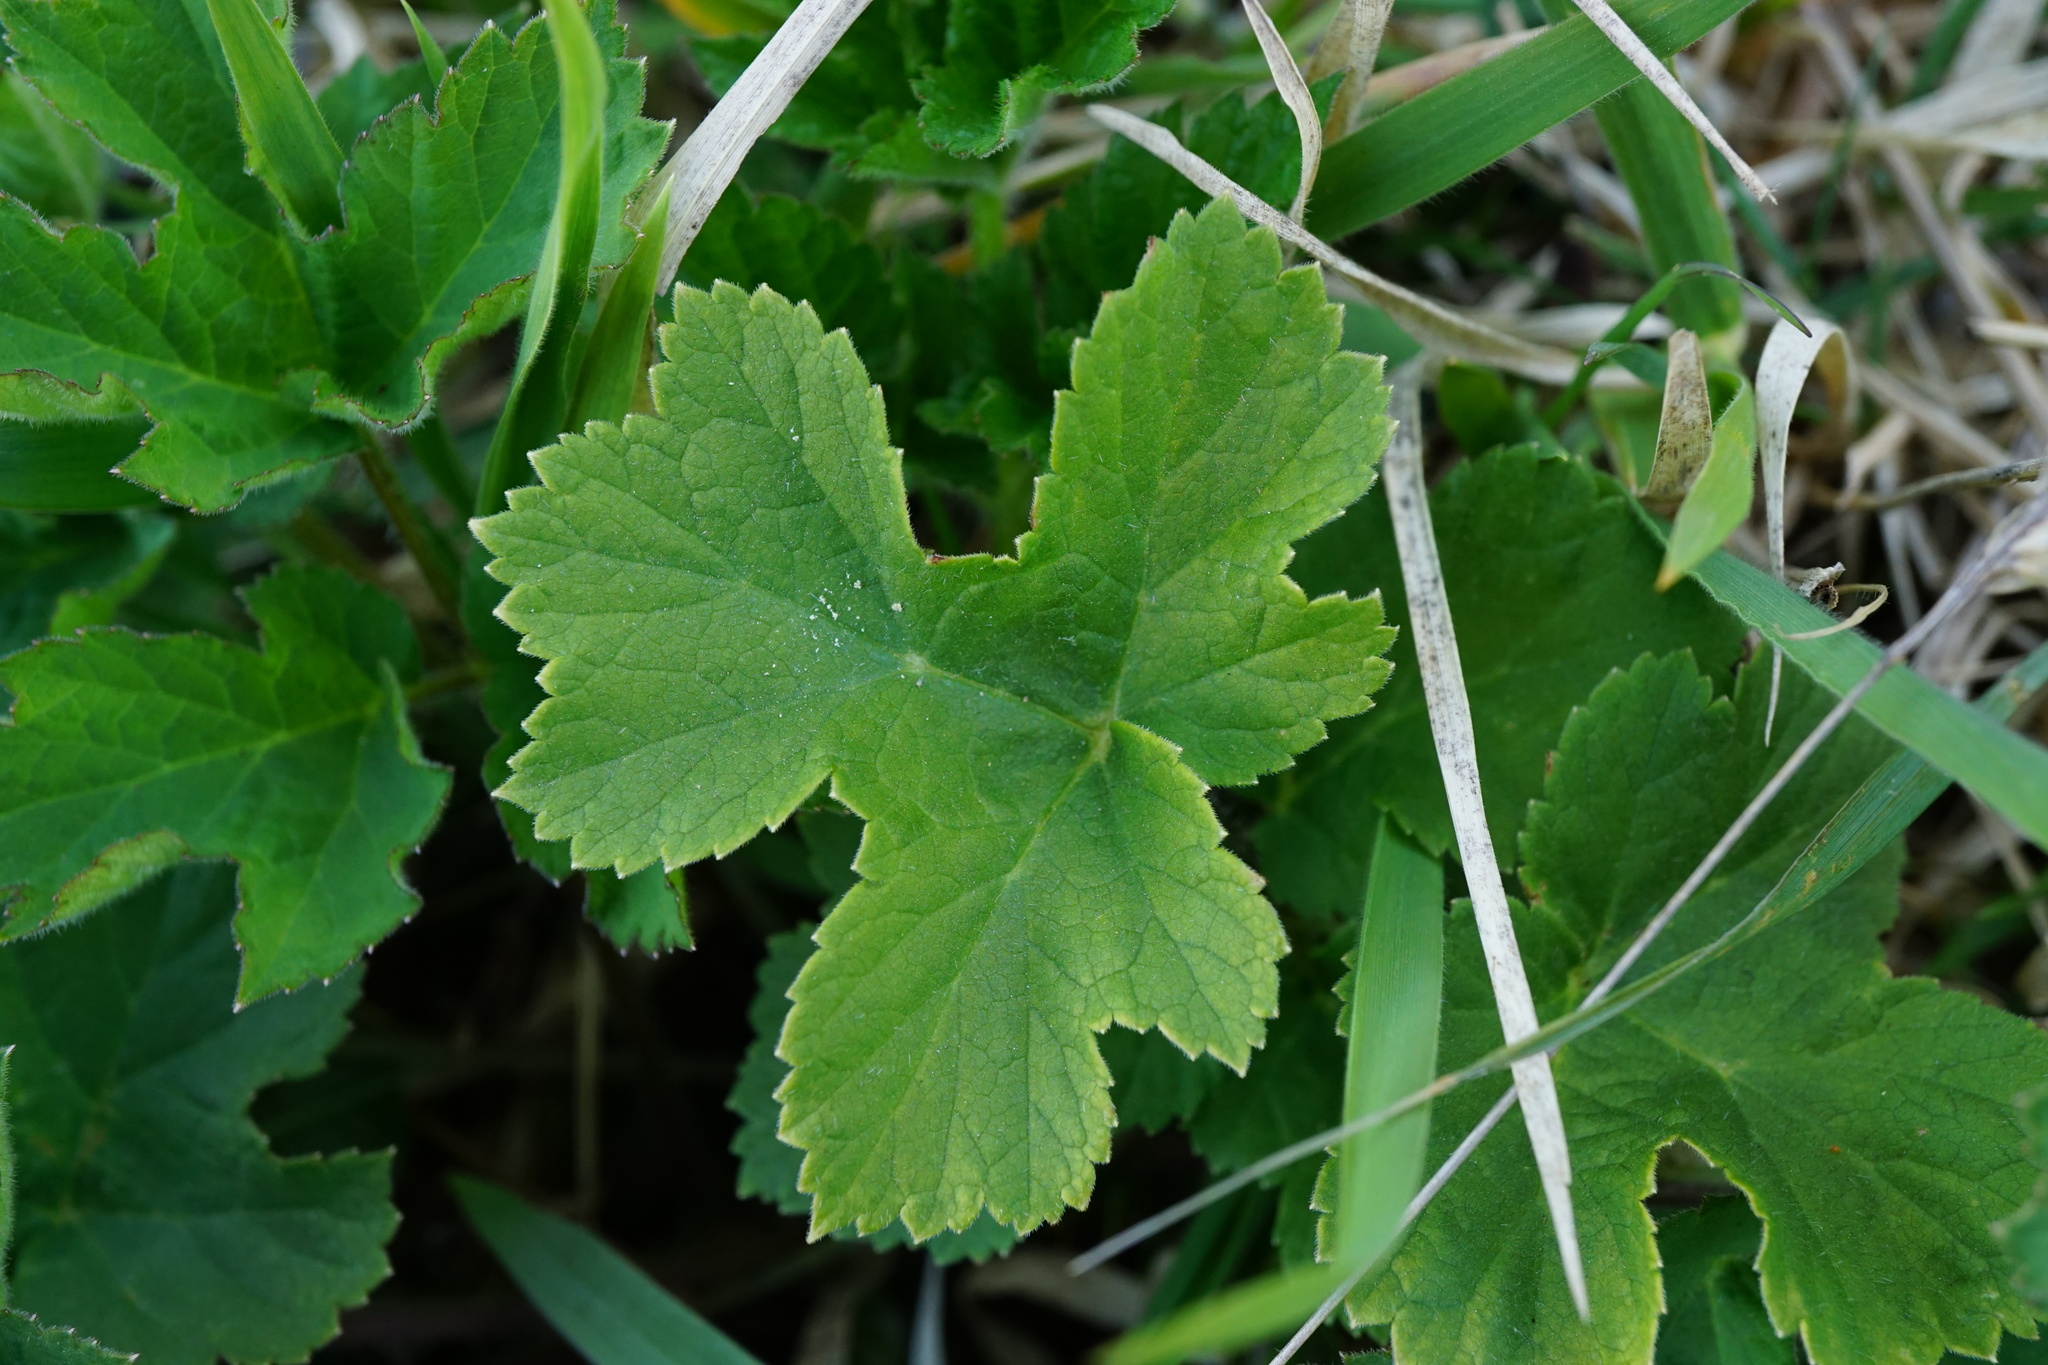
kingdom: Plantae
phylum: Tracheophyta
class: Magnoliopsida
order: Apiales
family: Apiaceae
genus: Heracleum
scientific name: Heracleum sphondylium
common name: Hogweed
